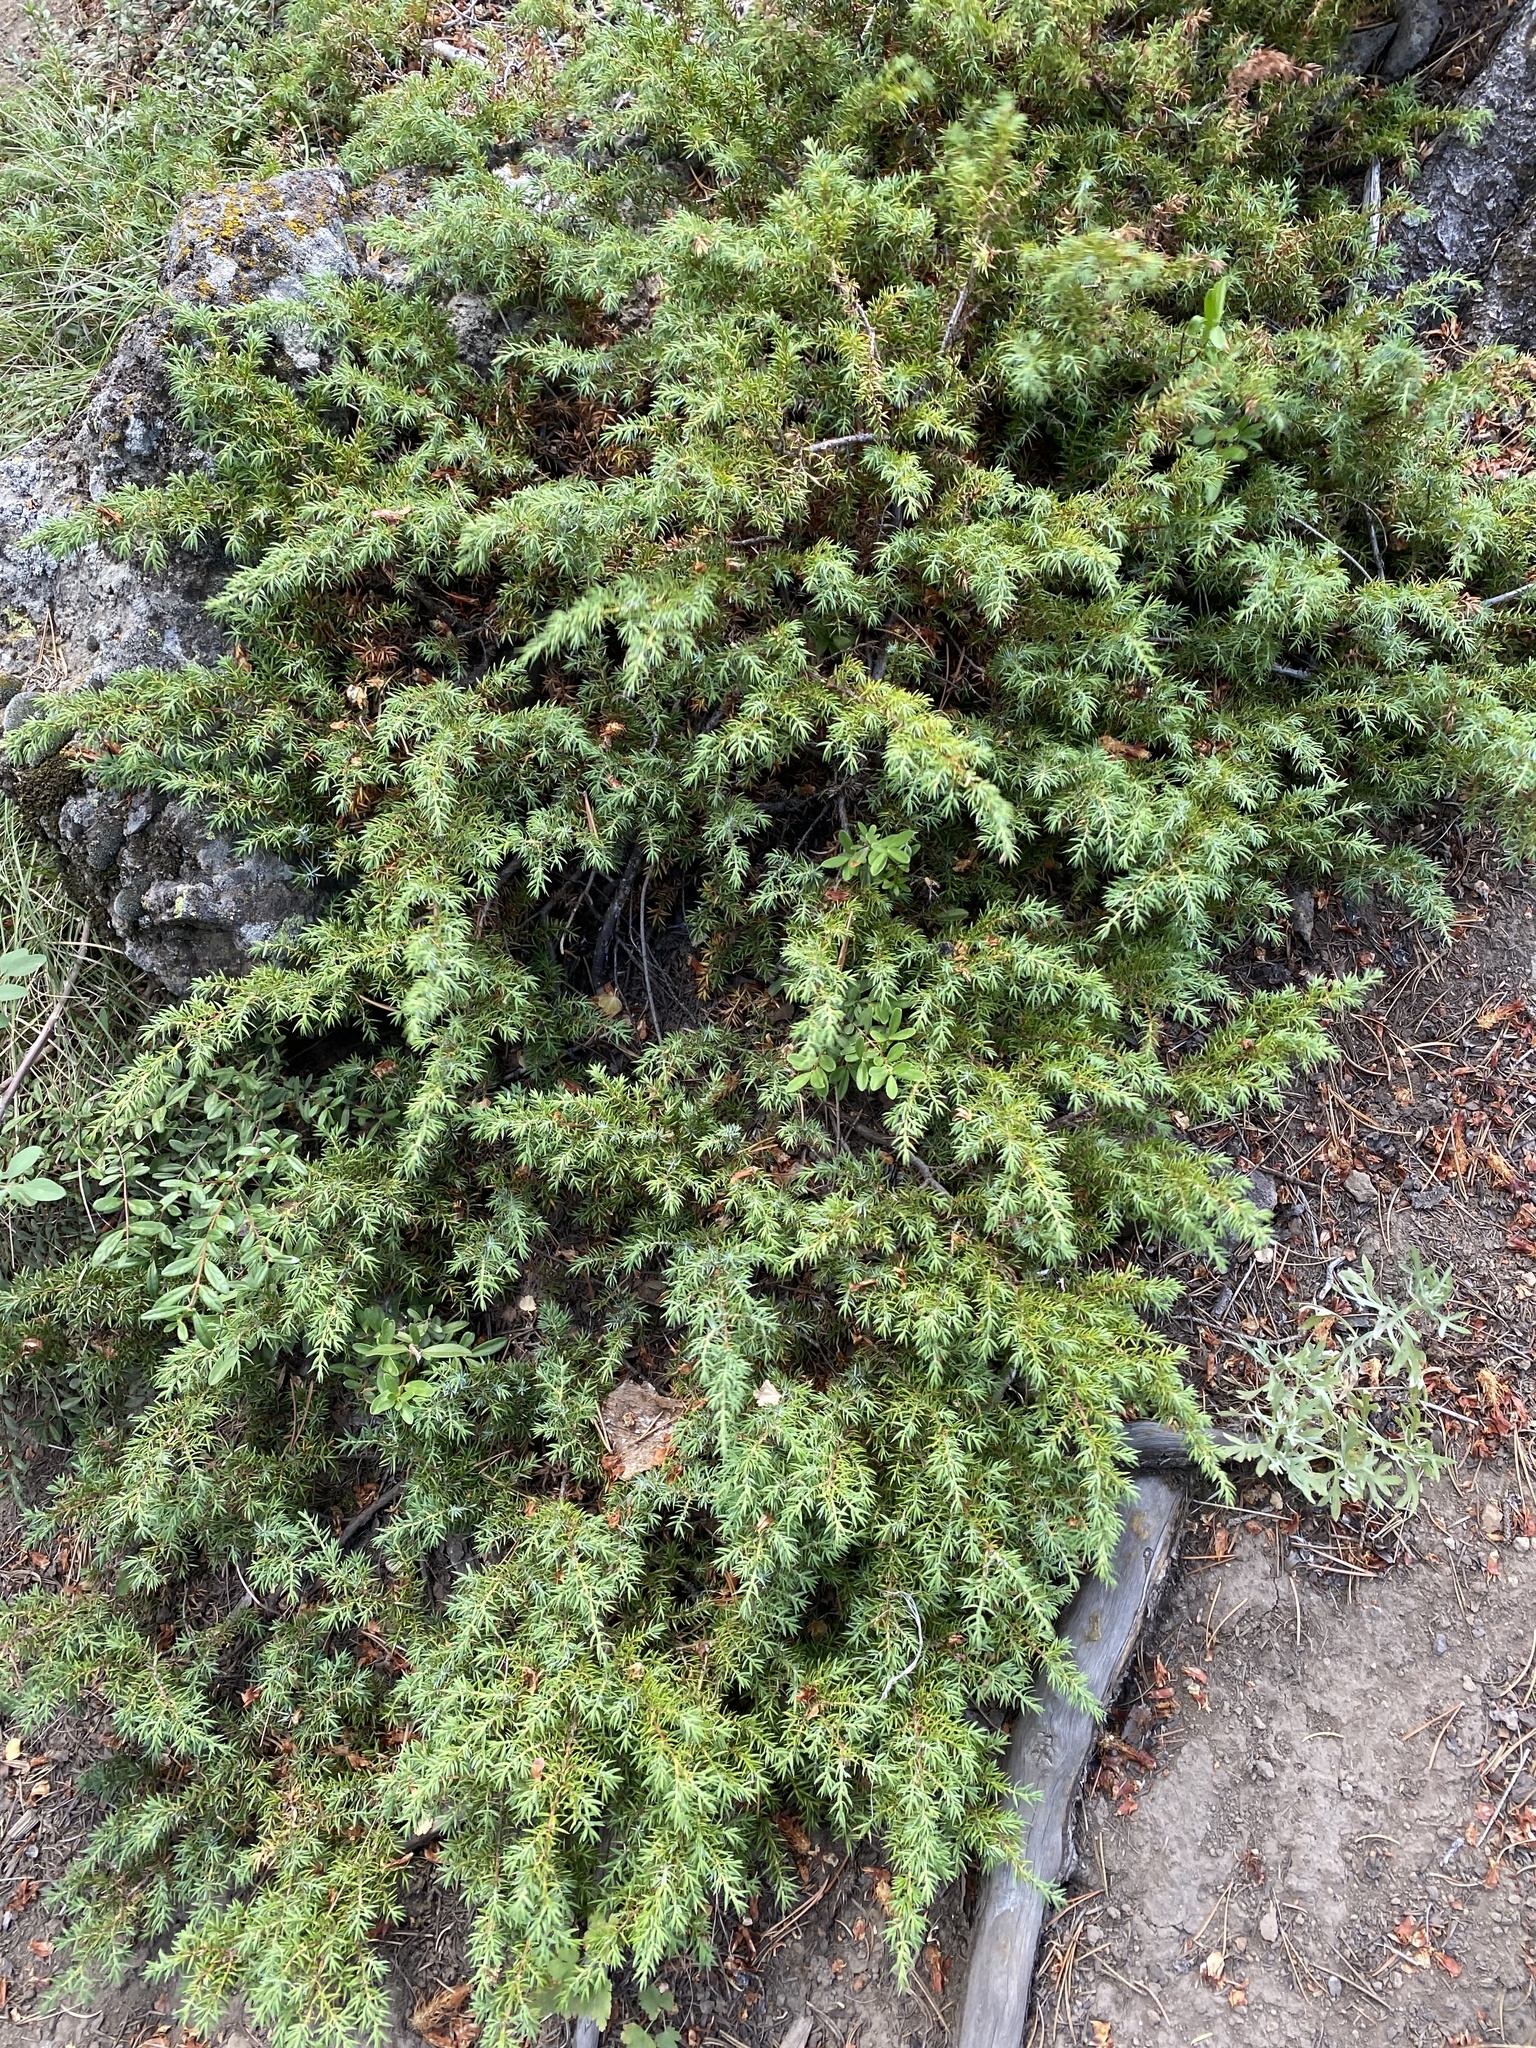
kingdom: Plantae
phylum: Tracheophyta
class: Pinopsida
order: Pinales
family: Cupressaceae
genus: Juniperus
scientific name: Juniperus communis
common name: Common juniper
